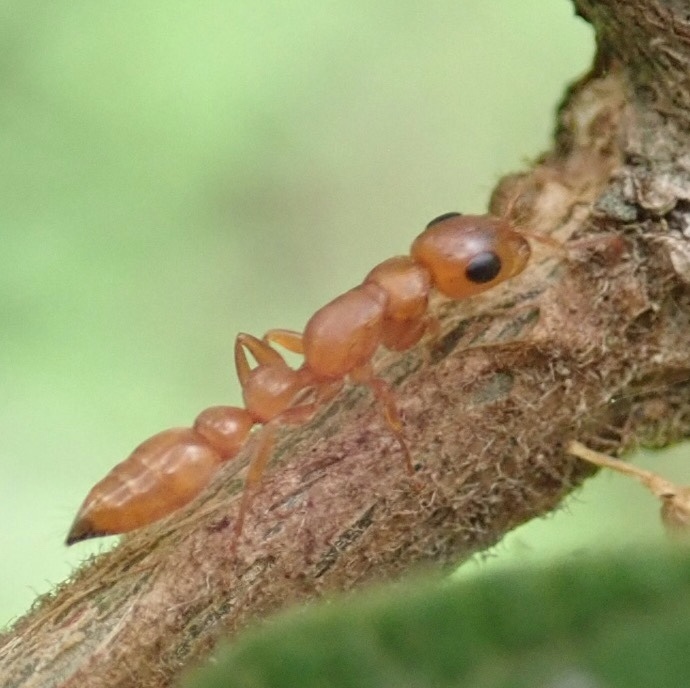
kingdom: Animalia
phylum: Arthropoda
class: Insecta
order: Hymenoptera
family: Formicidae
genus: Tetraponera
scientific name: Tetraponera natalensis
